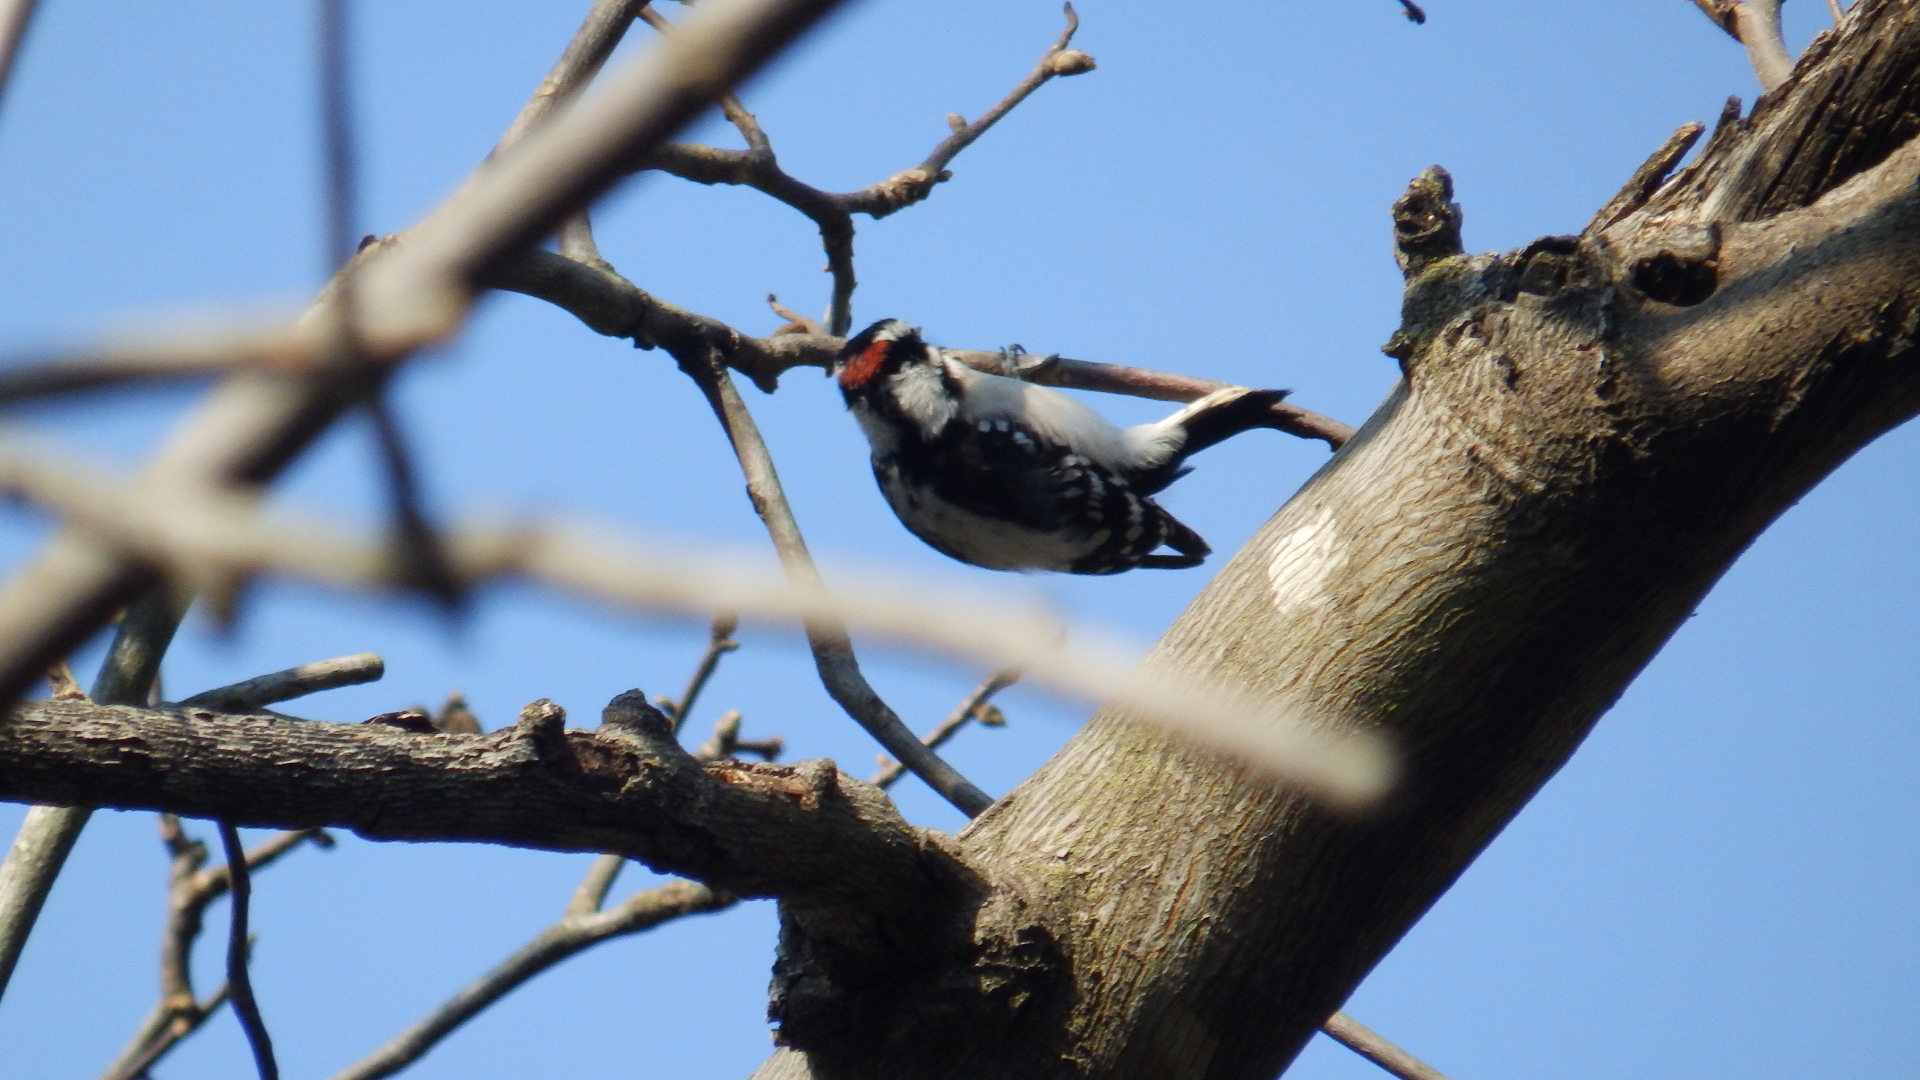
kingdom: Animalia
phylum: Chordata
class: Aves
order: Piciformes
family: Picidae
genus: Dryobates
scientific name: Dryobates pubescens
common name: Downy woodpecker
